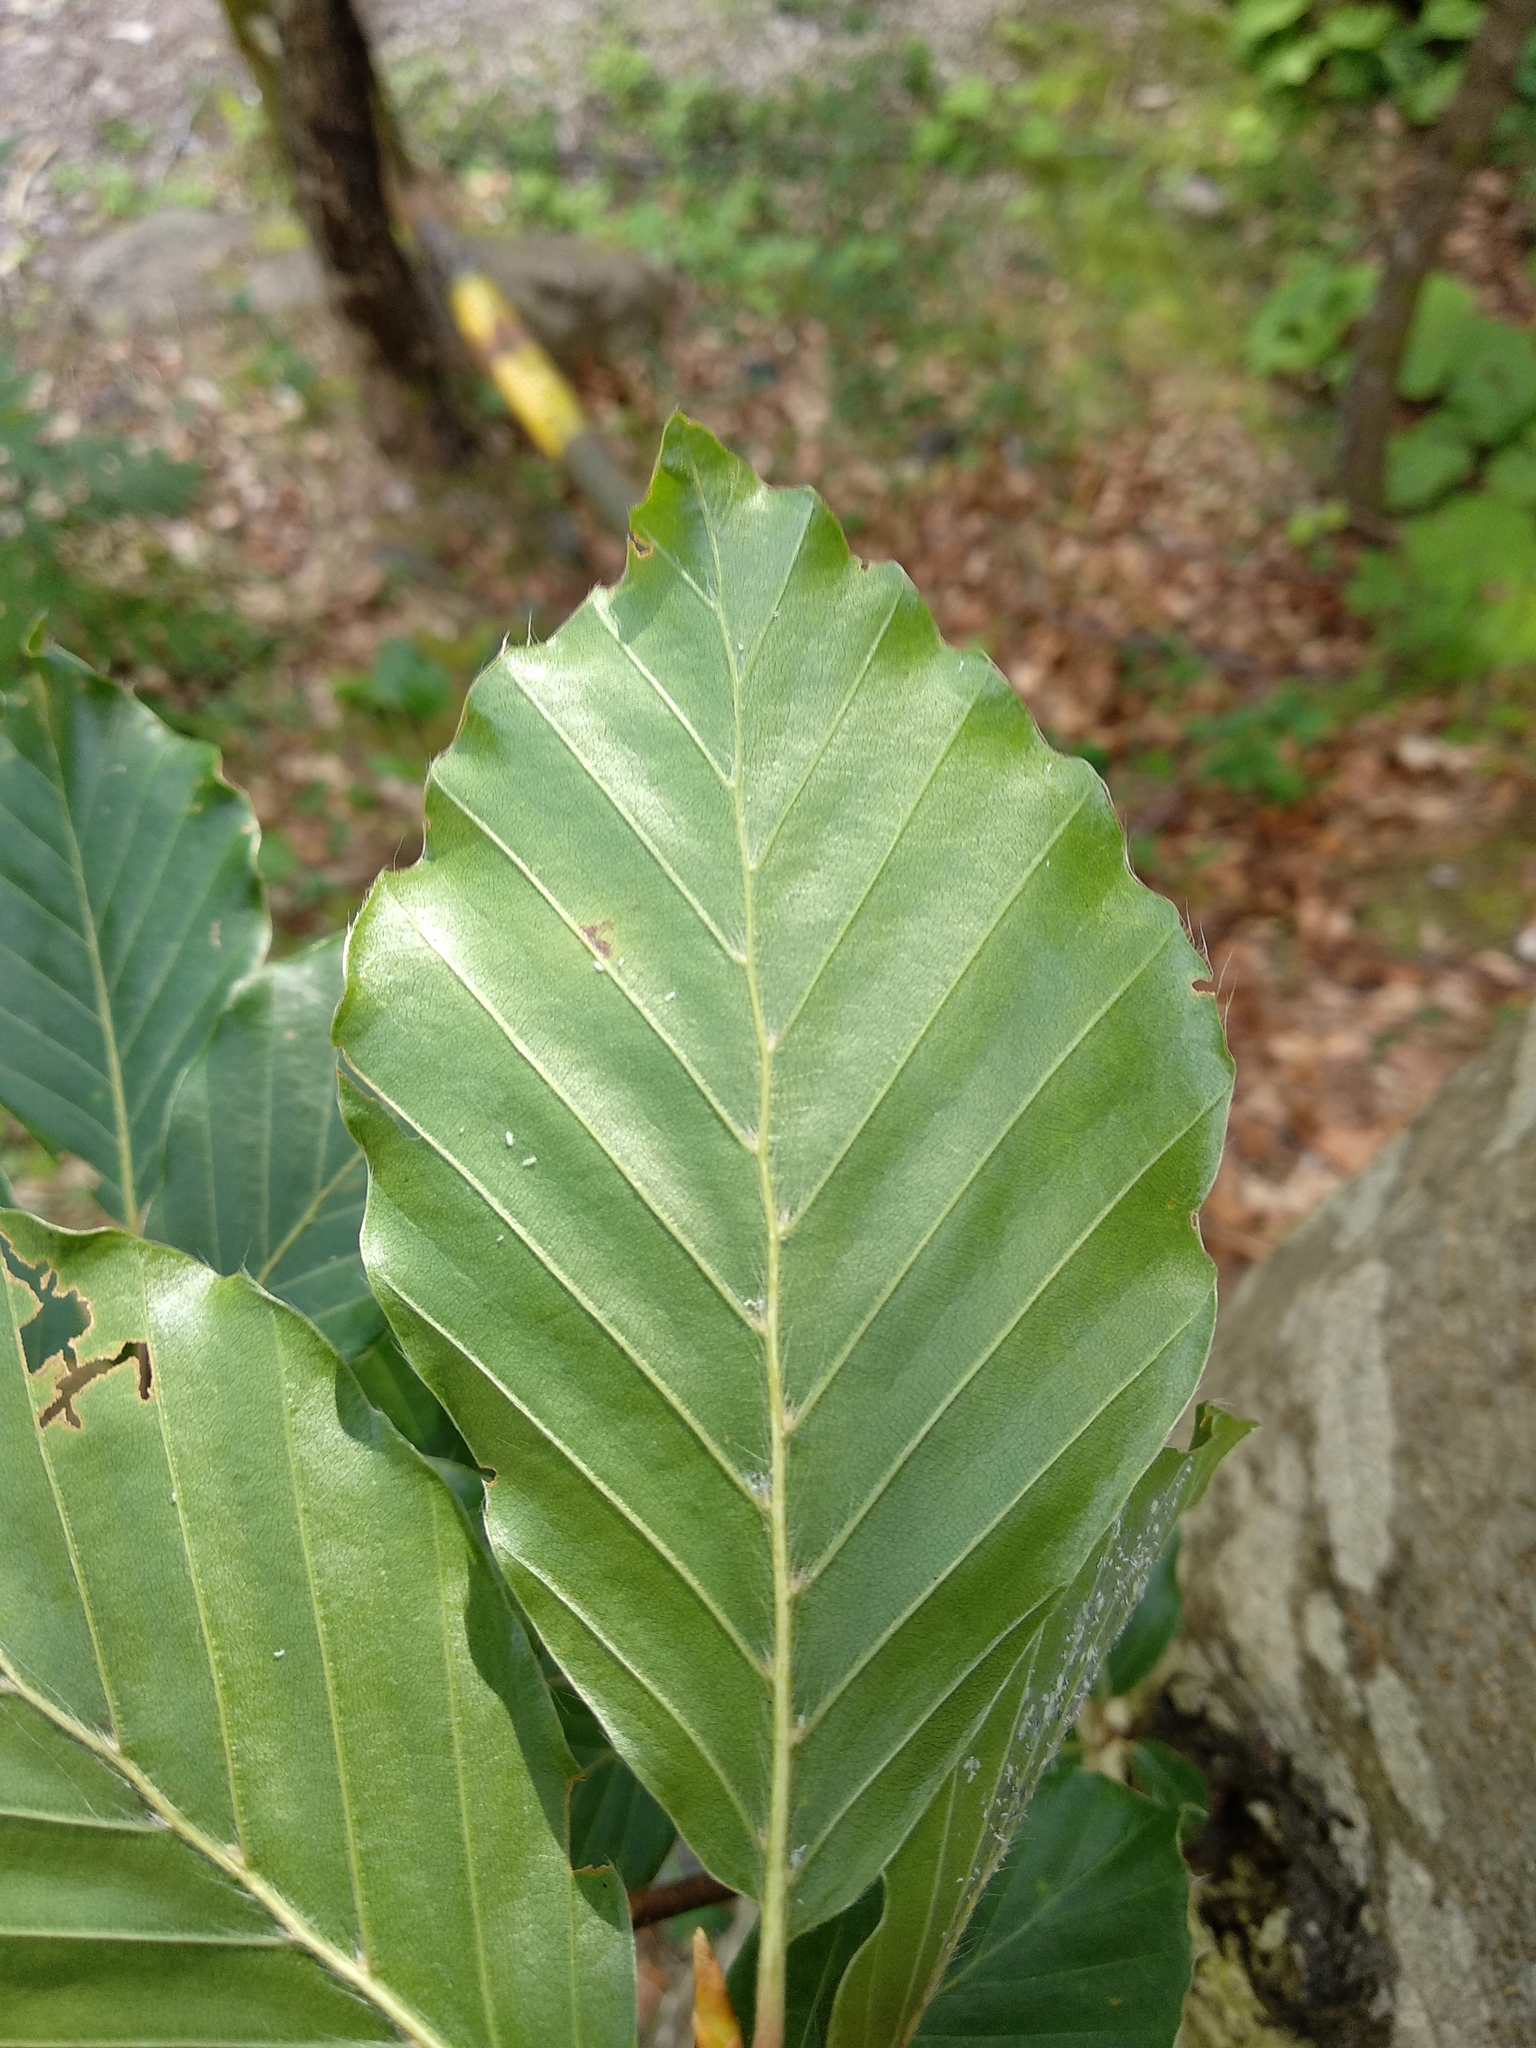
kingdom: Plantae
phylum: Tracheophyta
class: Magnoliopsida
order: Fagales
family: Fagaceae
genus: Fagus
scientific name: Fagus sylvatica
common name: Beech
